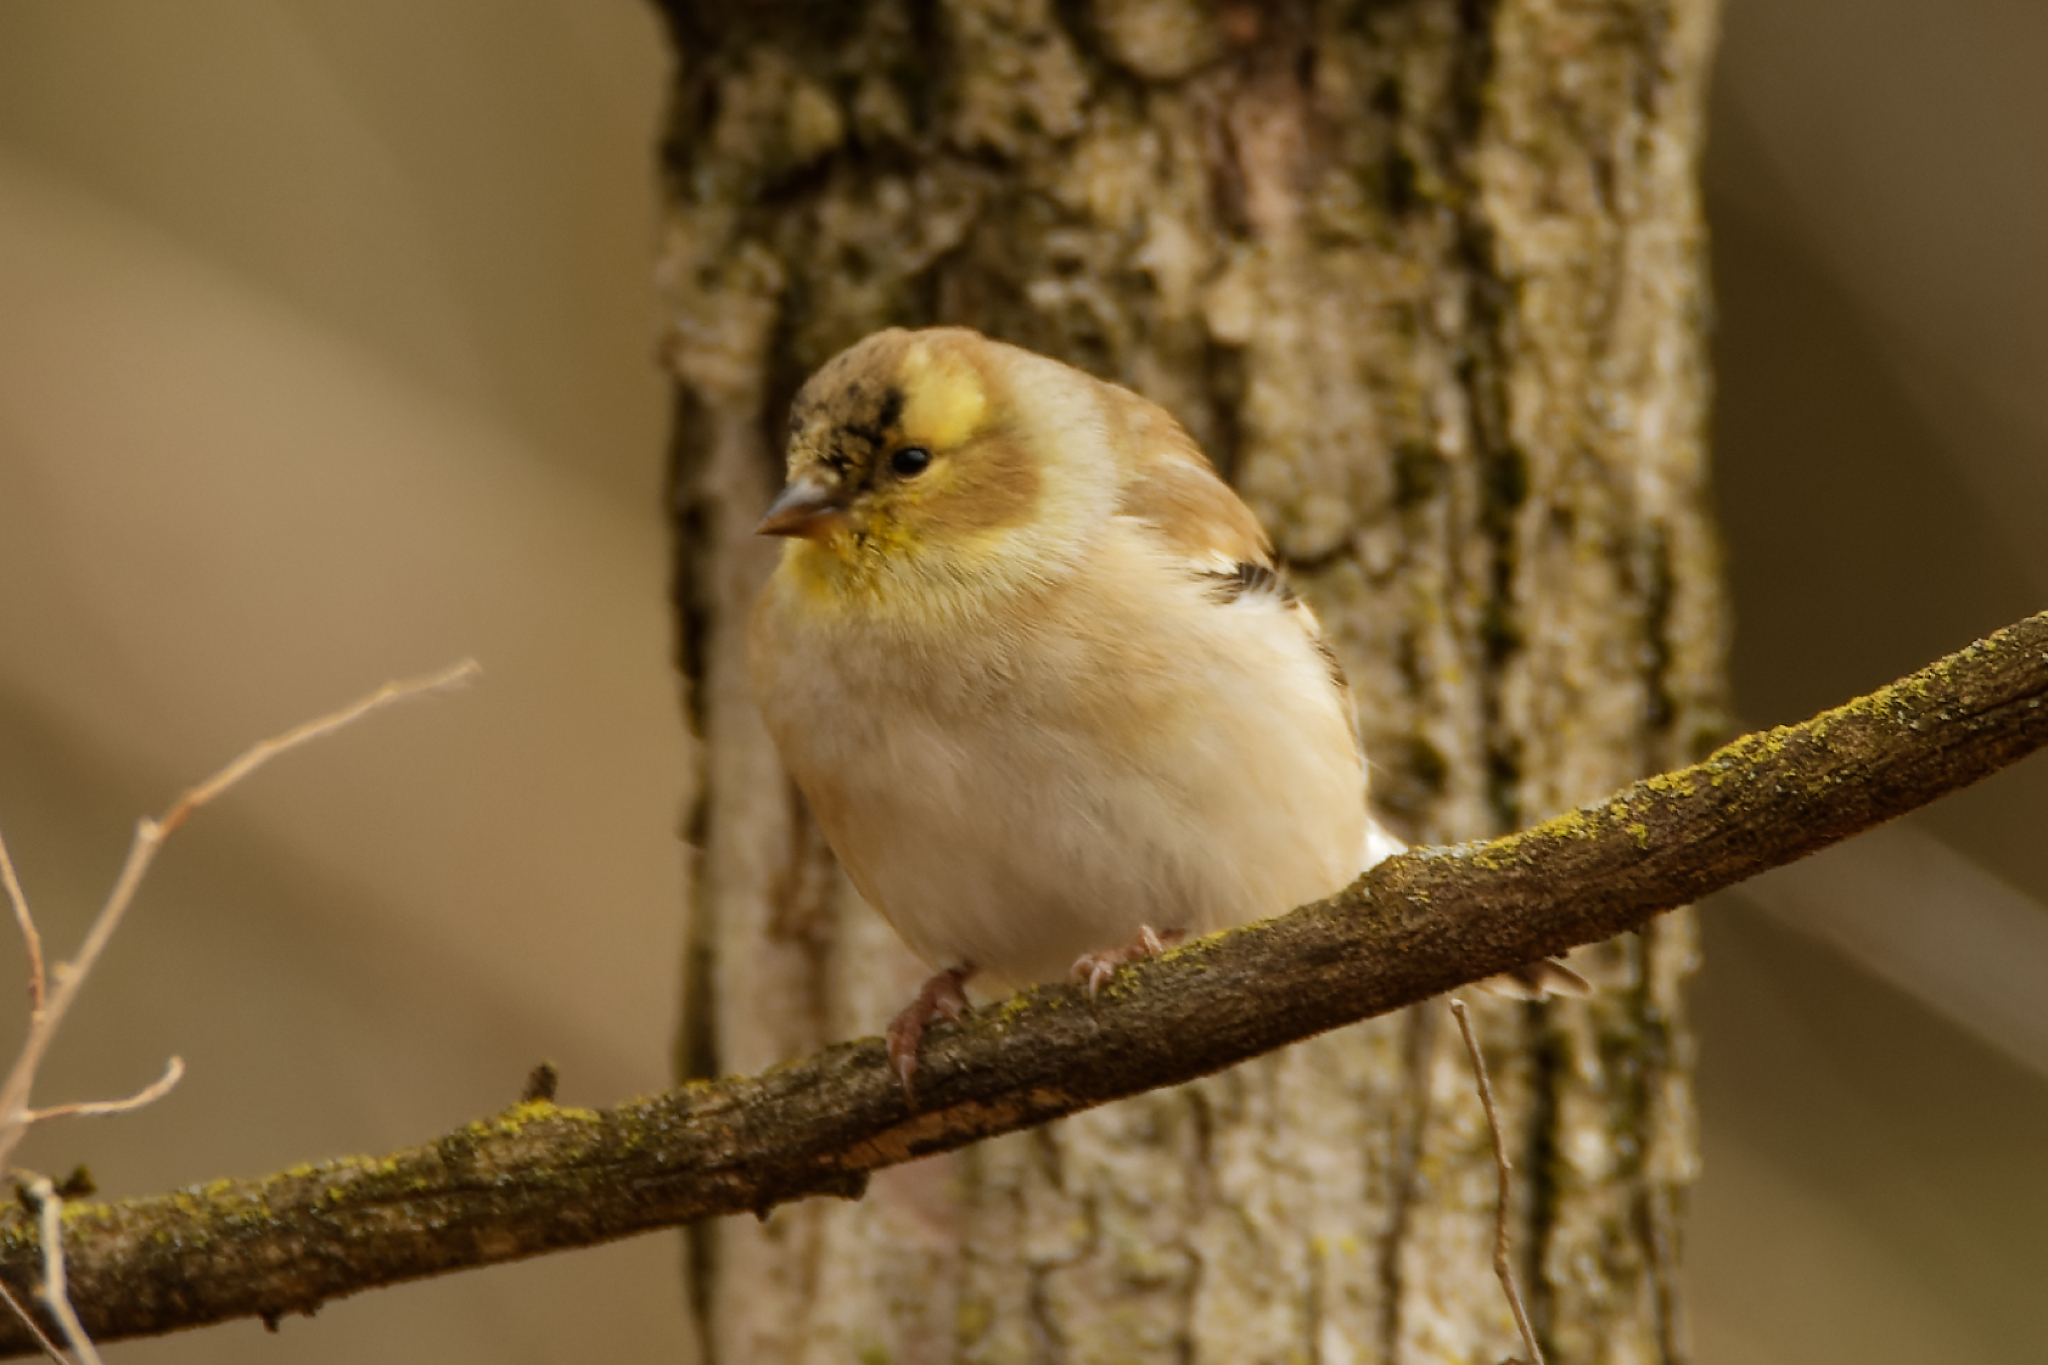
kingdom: Animalia
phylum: Chordata
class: Aves
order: Passeriformes
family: Fringillidae
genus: Spinus
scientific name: Spinus tristis
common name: American goldfinch
